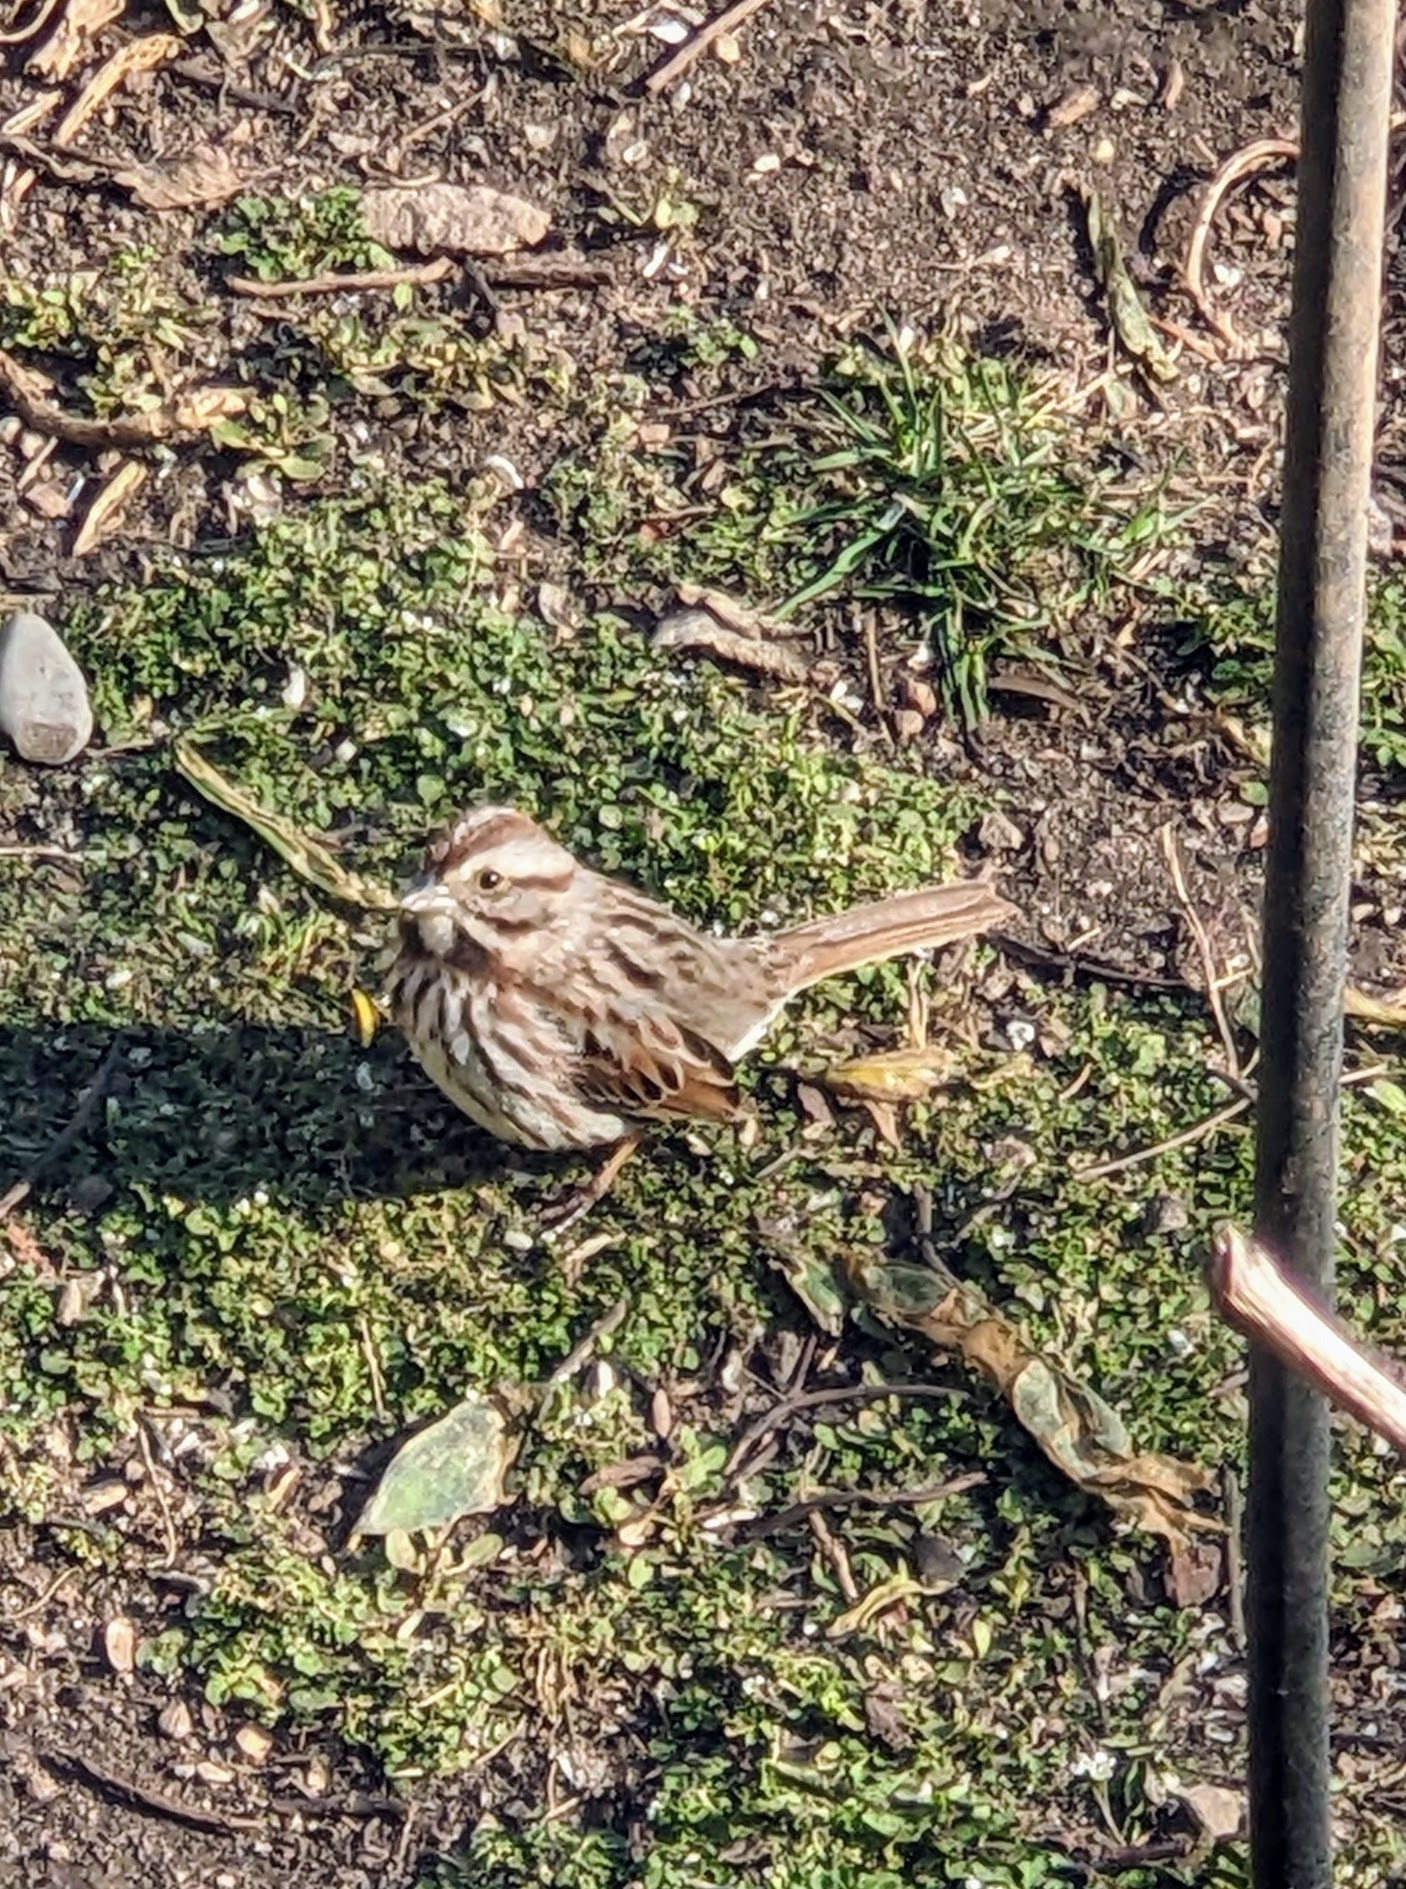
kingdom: Animalia
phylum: Chordata
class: Aves
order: Passeriformes
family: Passerellidae
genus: Melospiza
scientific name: Melospiza melodia
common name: Song sparrow
